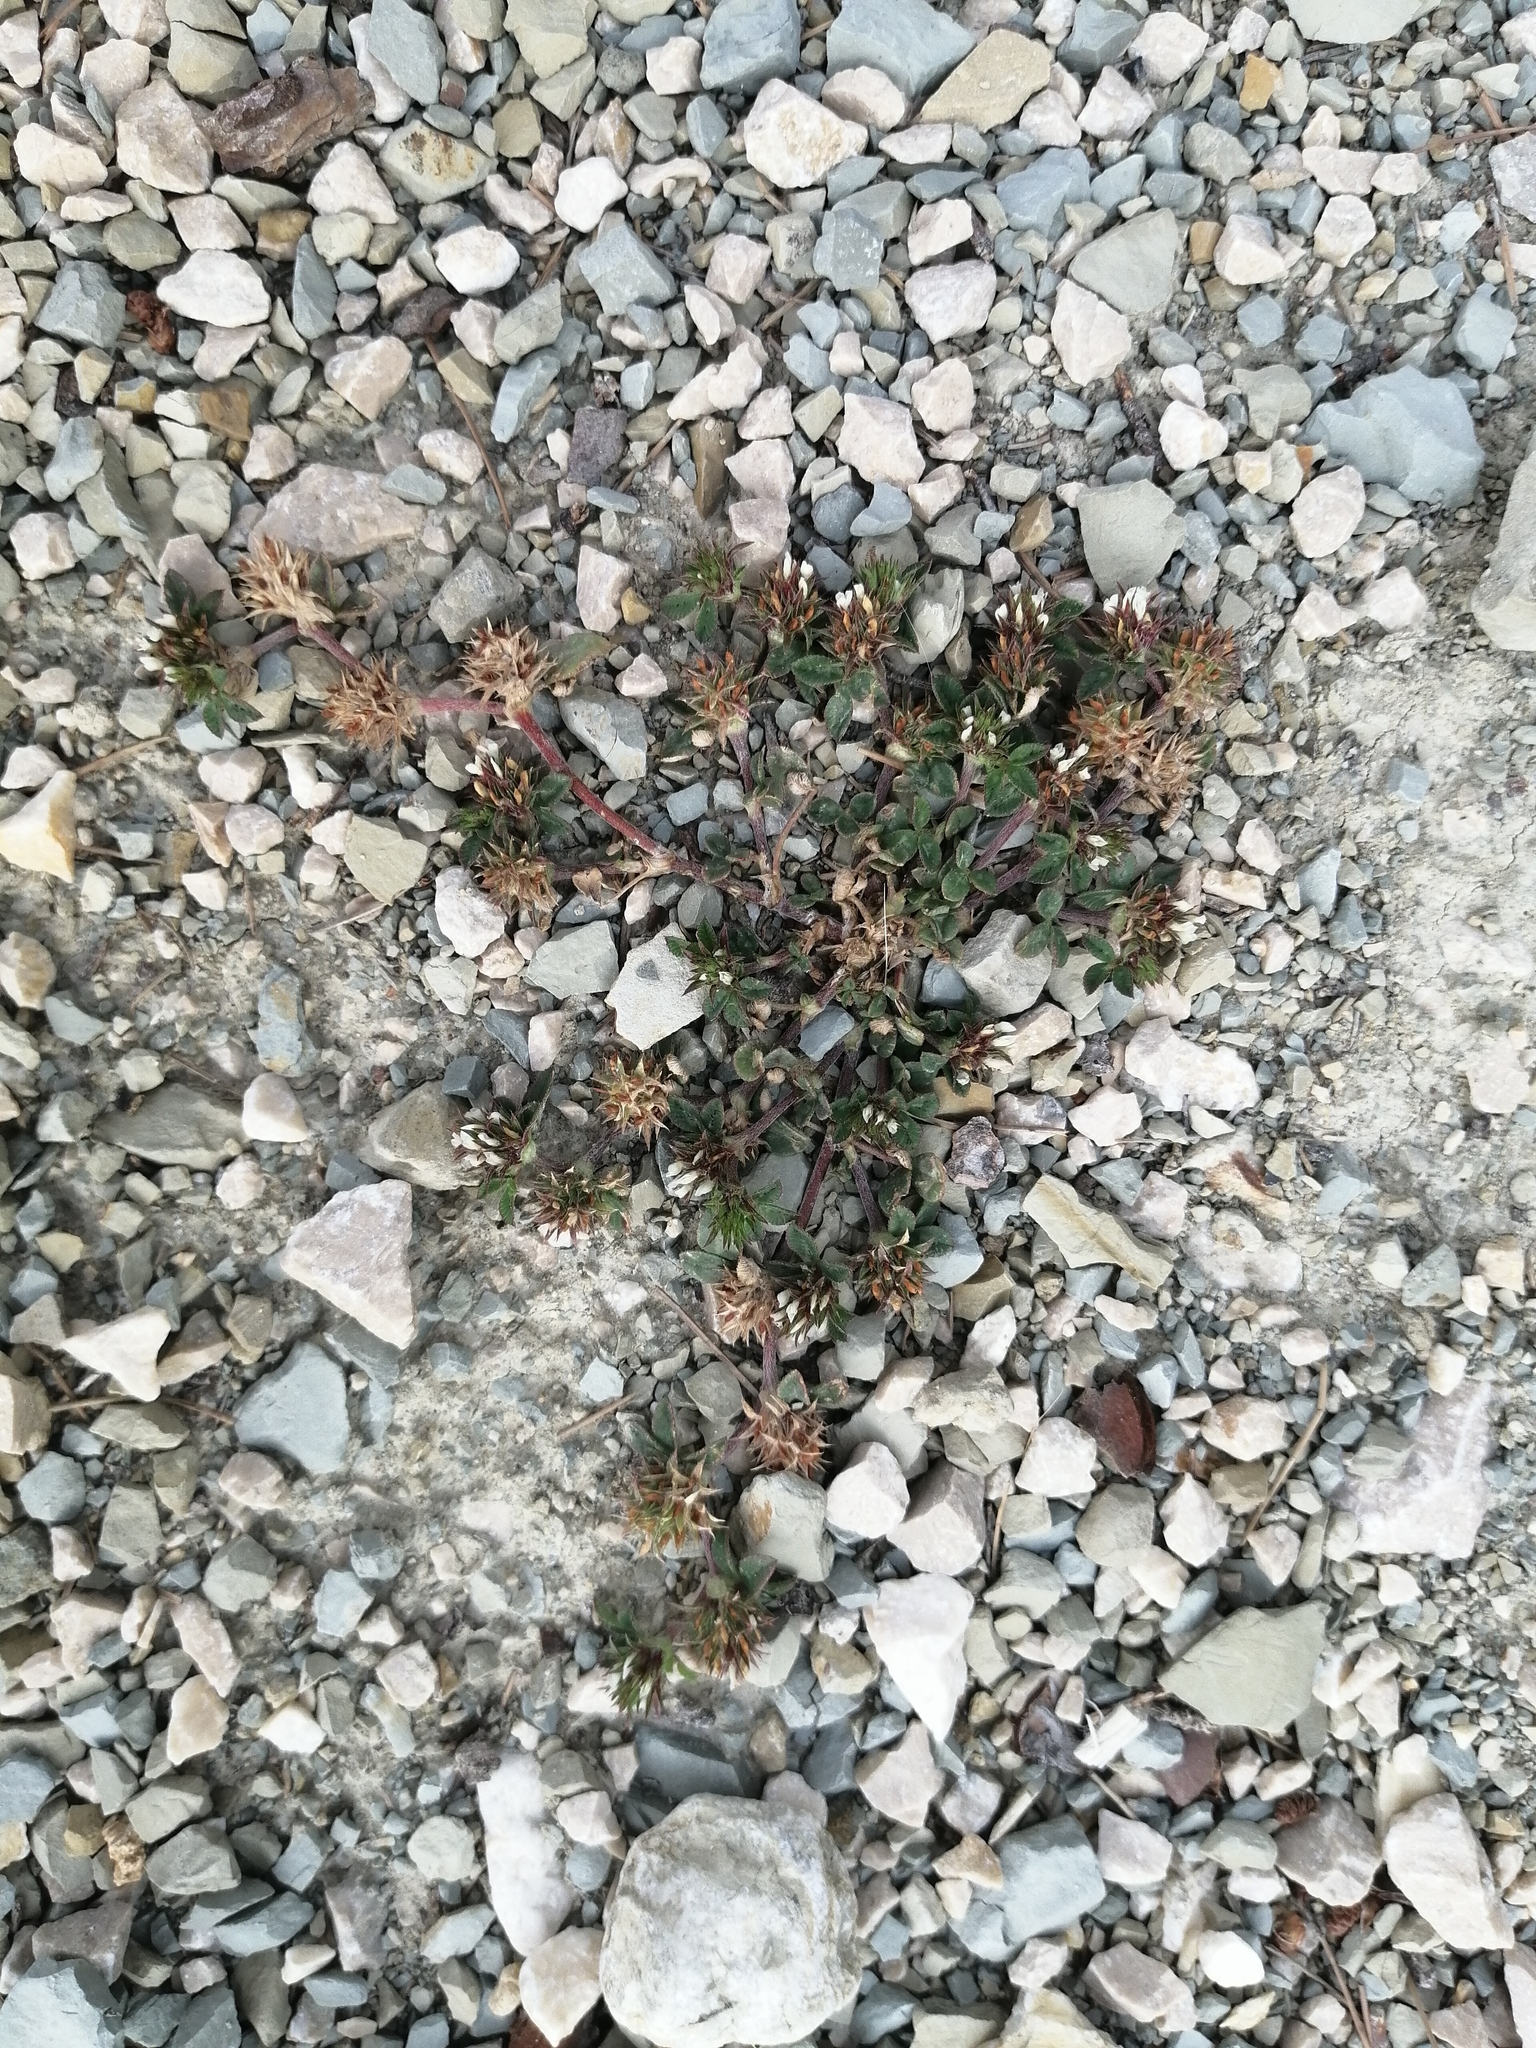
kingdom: Plantae
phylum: Tracheophyta
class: Magnoliopsida
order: Fabales
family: Fabaceae
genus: Trifolium
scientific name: Trifolium scabrum
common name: Rough clover
